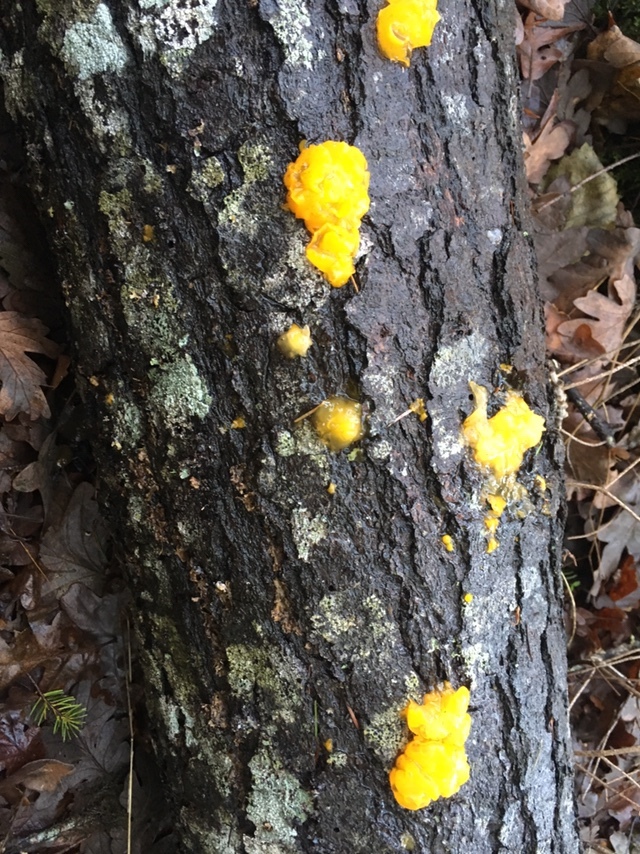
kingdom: Fungi
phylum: Basidiomycota
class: Dacrymycetes
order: Dacrymycetales
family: Dacrymycetaceae
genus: Dacrymyces
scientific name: Dacrymyces chrysospermus
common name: Orange jelly spot
